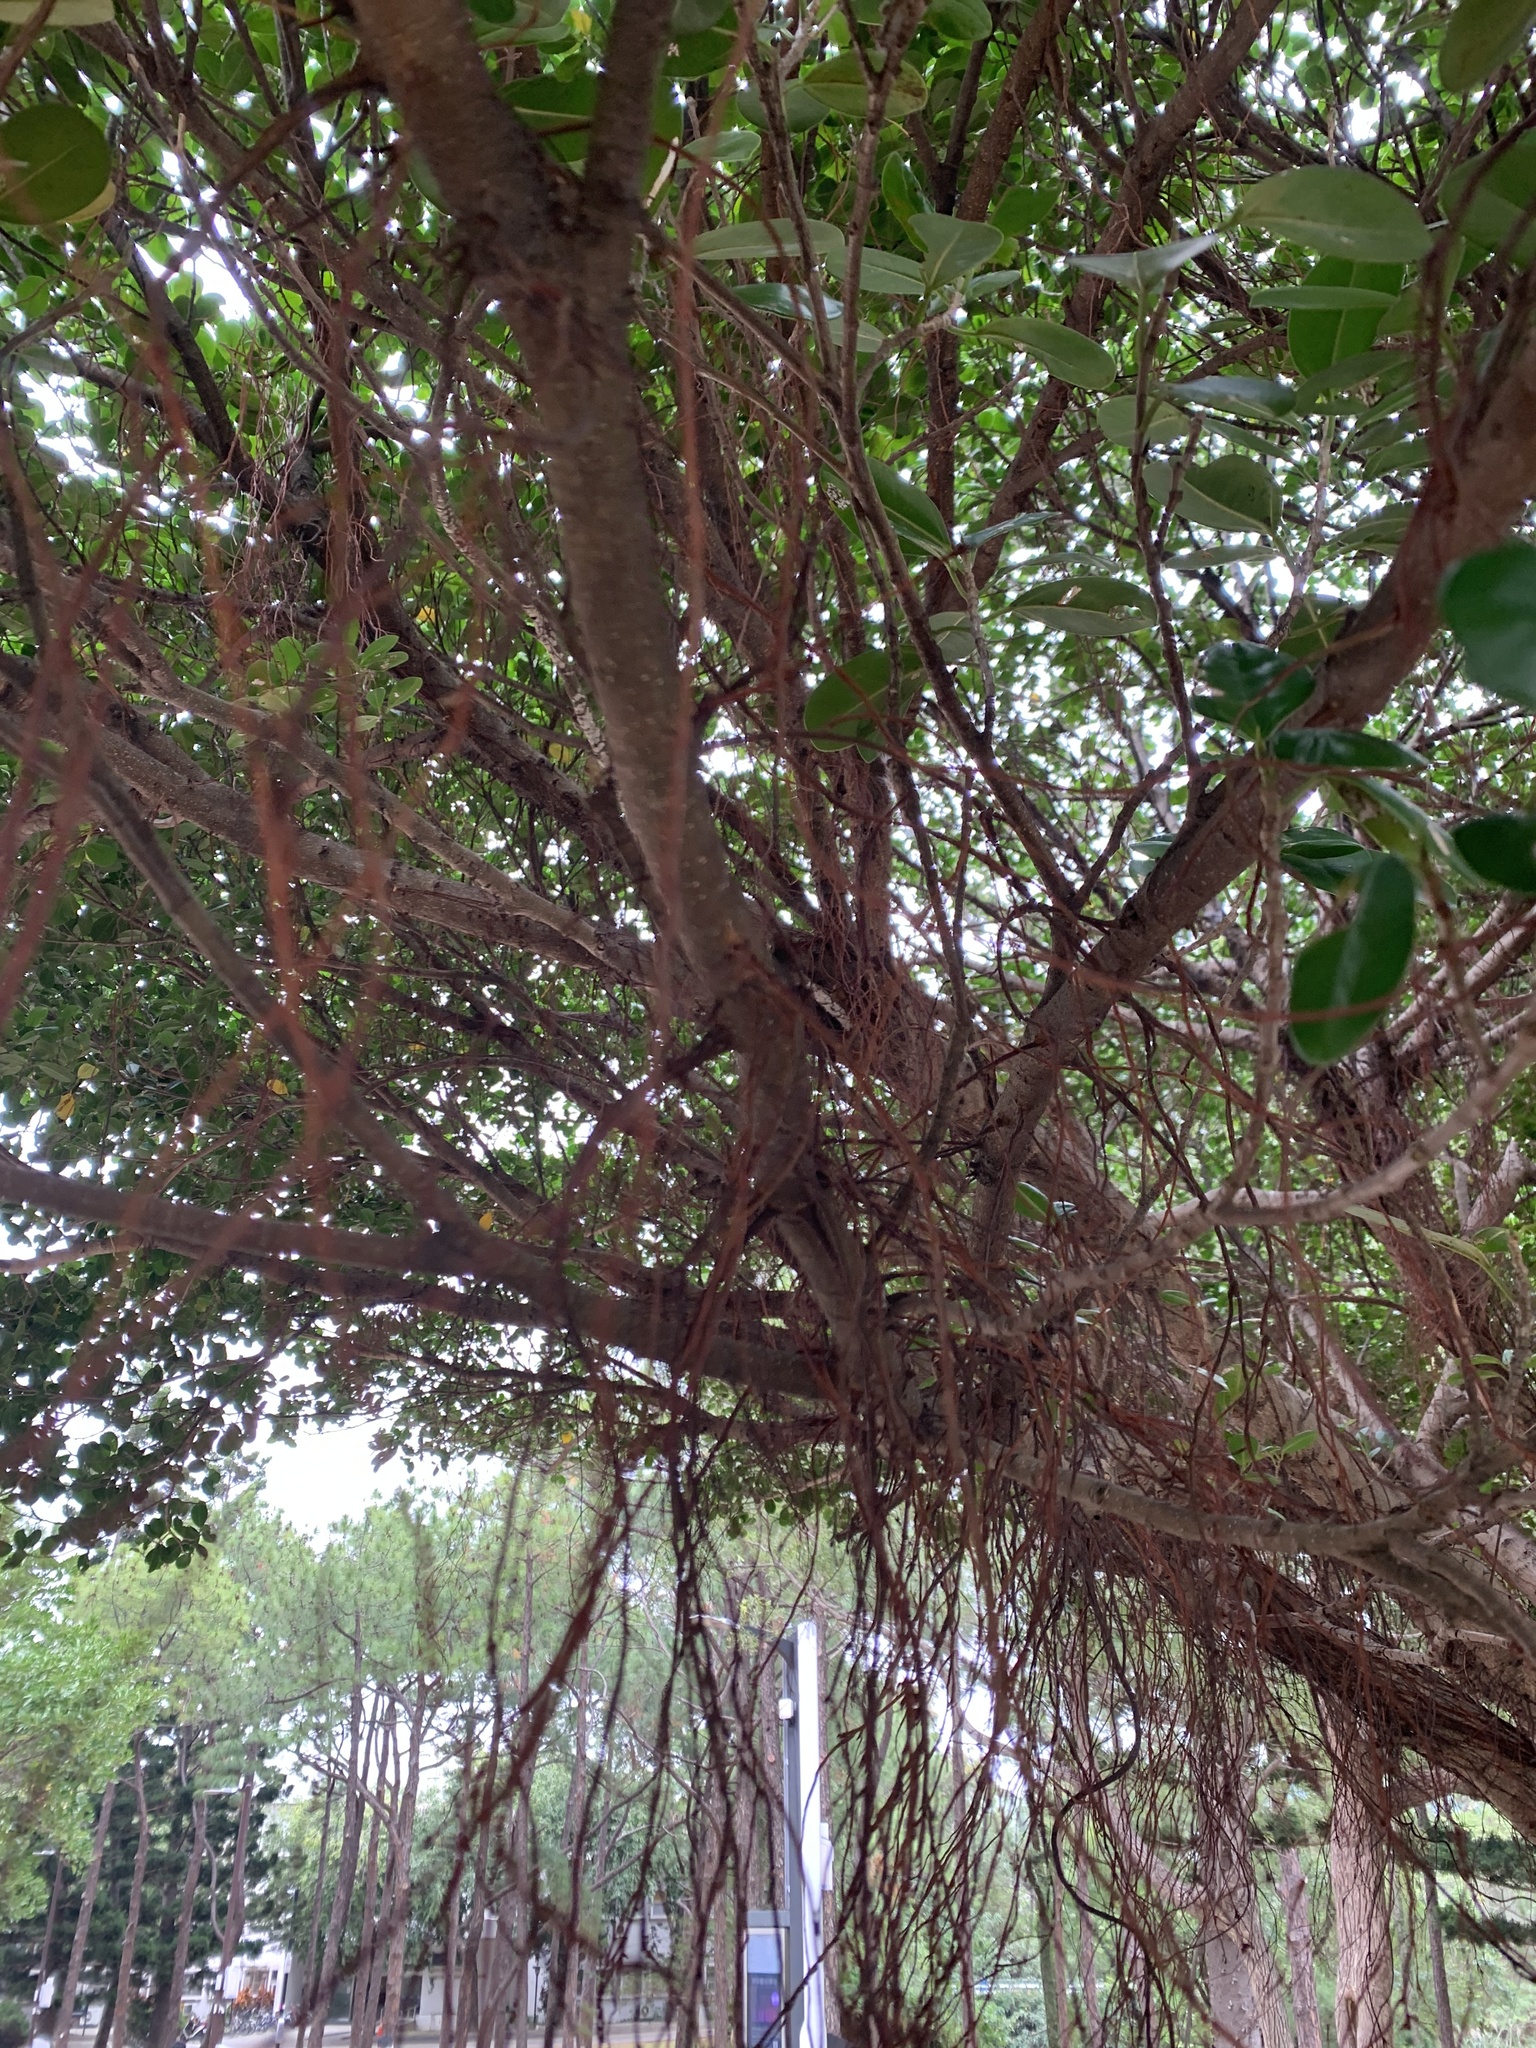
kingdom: Plantae
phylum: Tracheophyta
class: Magnoliopsida
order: Rosales
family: Moraceae
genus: Ficus
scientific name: Ficus microcarpa
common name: Chinese banyan
